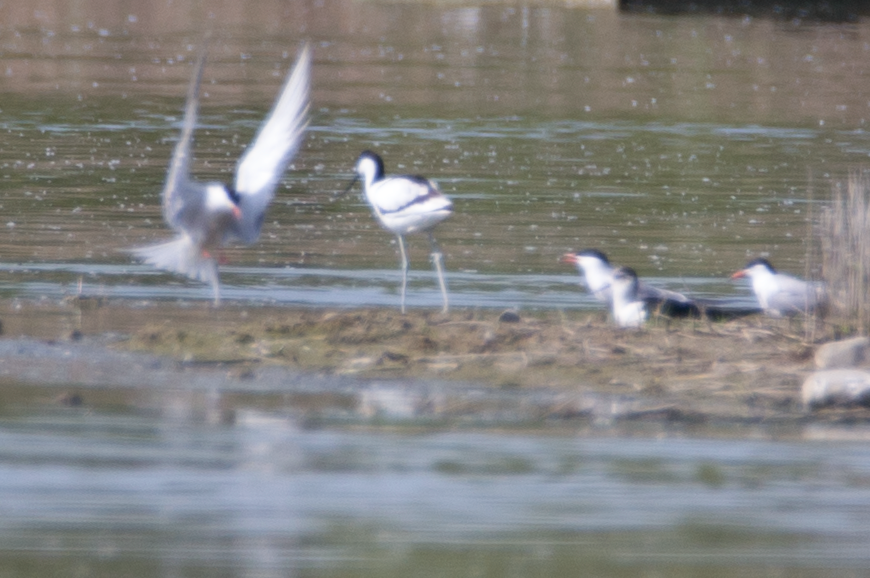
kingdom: Animalia
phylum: Chordata
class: Aves
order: Charadriiformes
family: Laridae
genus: Sterna
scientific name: Sterna hirundo
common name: Common tern
